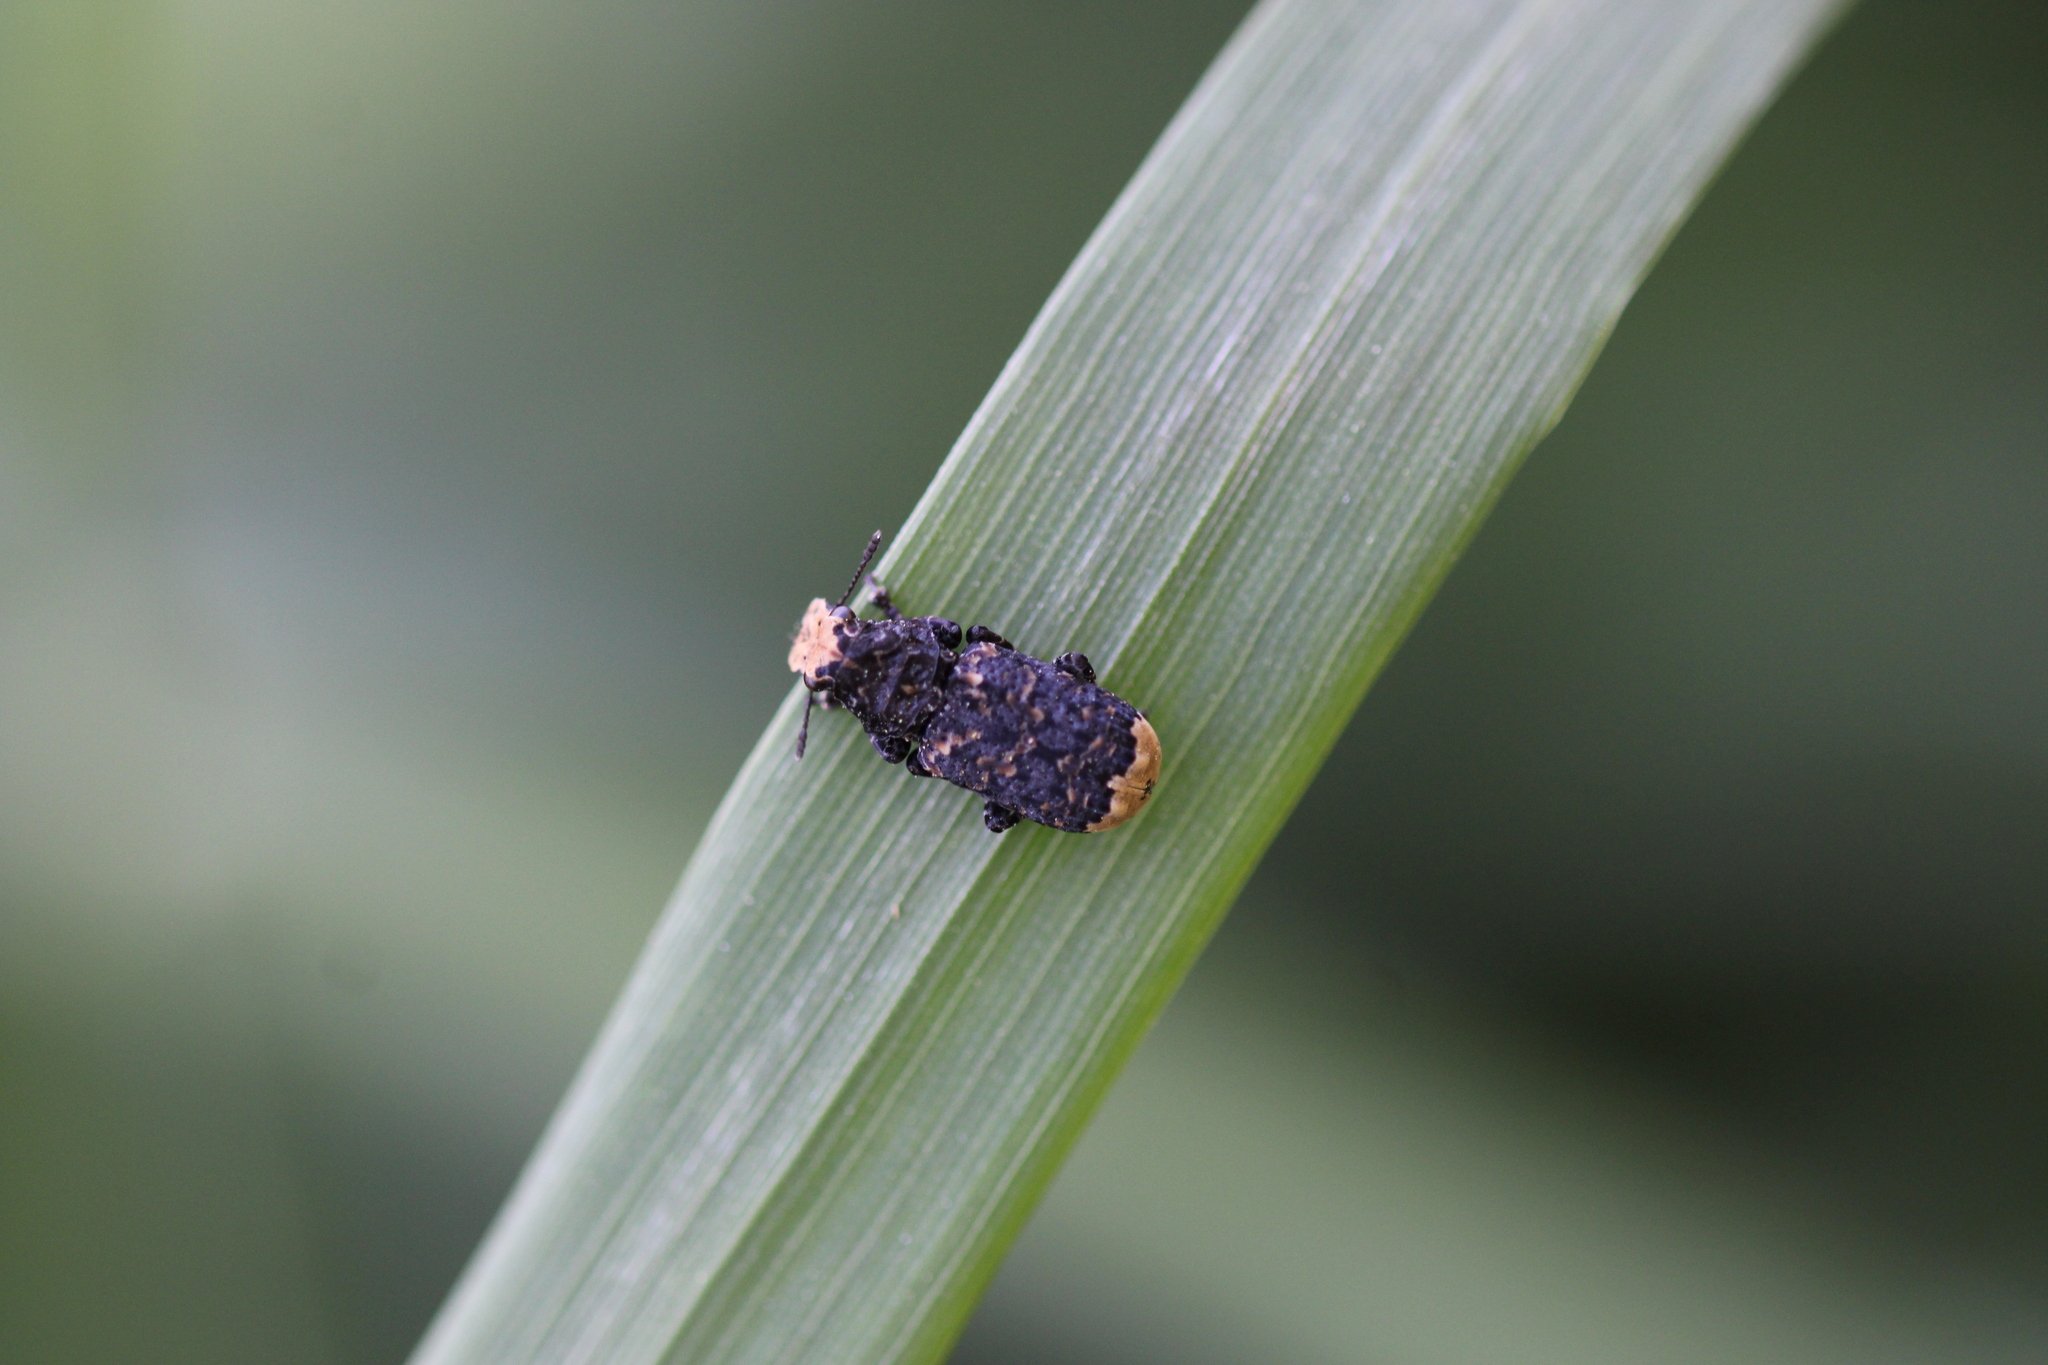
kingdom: Animalia
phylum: Arthropoda
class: Insecta
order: Coleoptera
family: Anthribidae
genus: Platyrhinus
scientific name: Platyrhinus resinosus
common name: Cramp-ball fungus weevil
